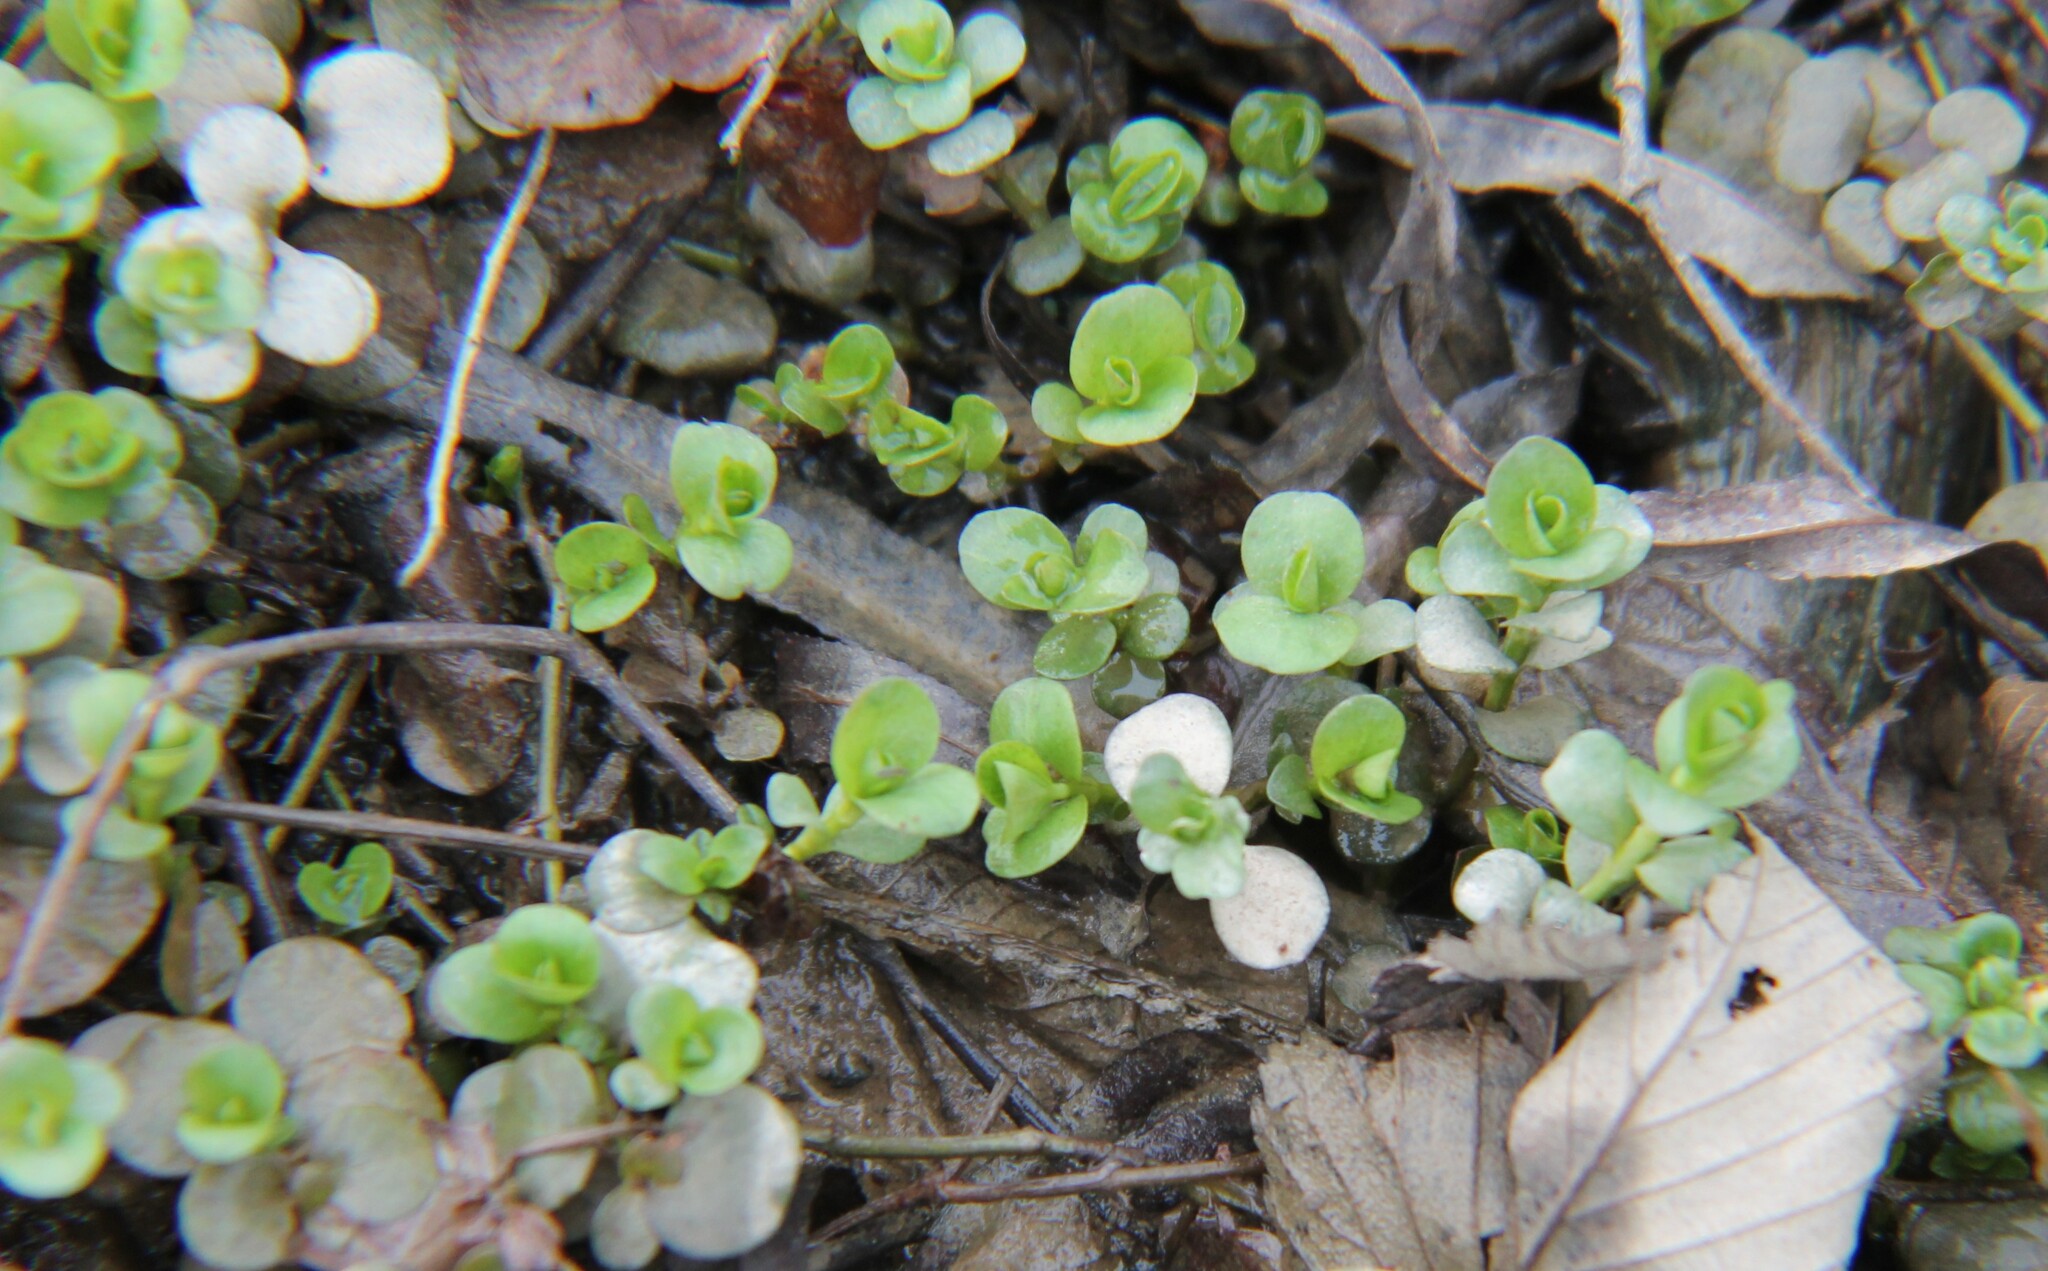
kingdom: Plantae
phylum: Tracheophyta
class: Magnoliopsida
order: Ericales
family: Primulaceae
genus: Lysimachia
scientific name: Lysimachia nummularia
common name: Moneywort
